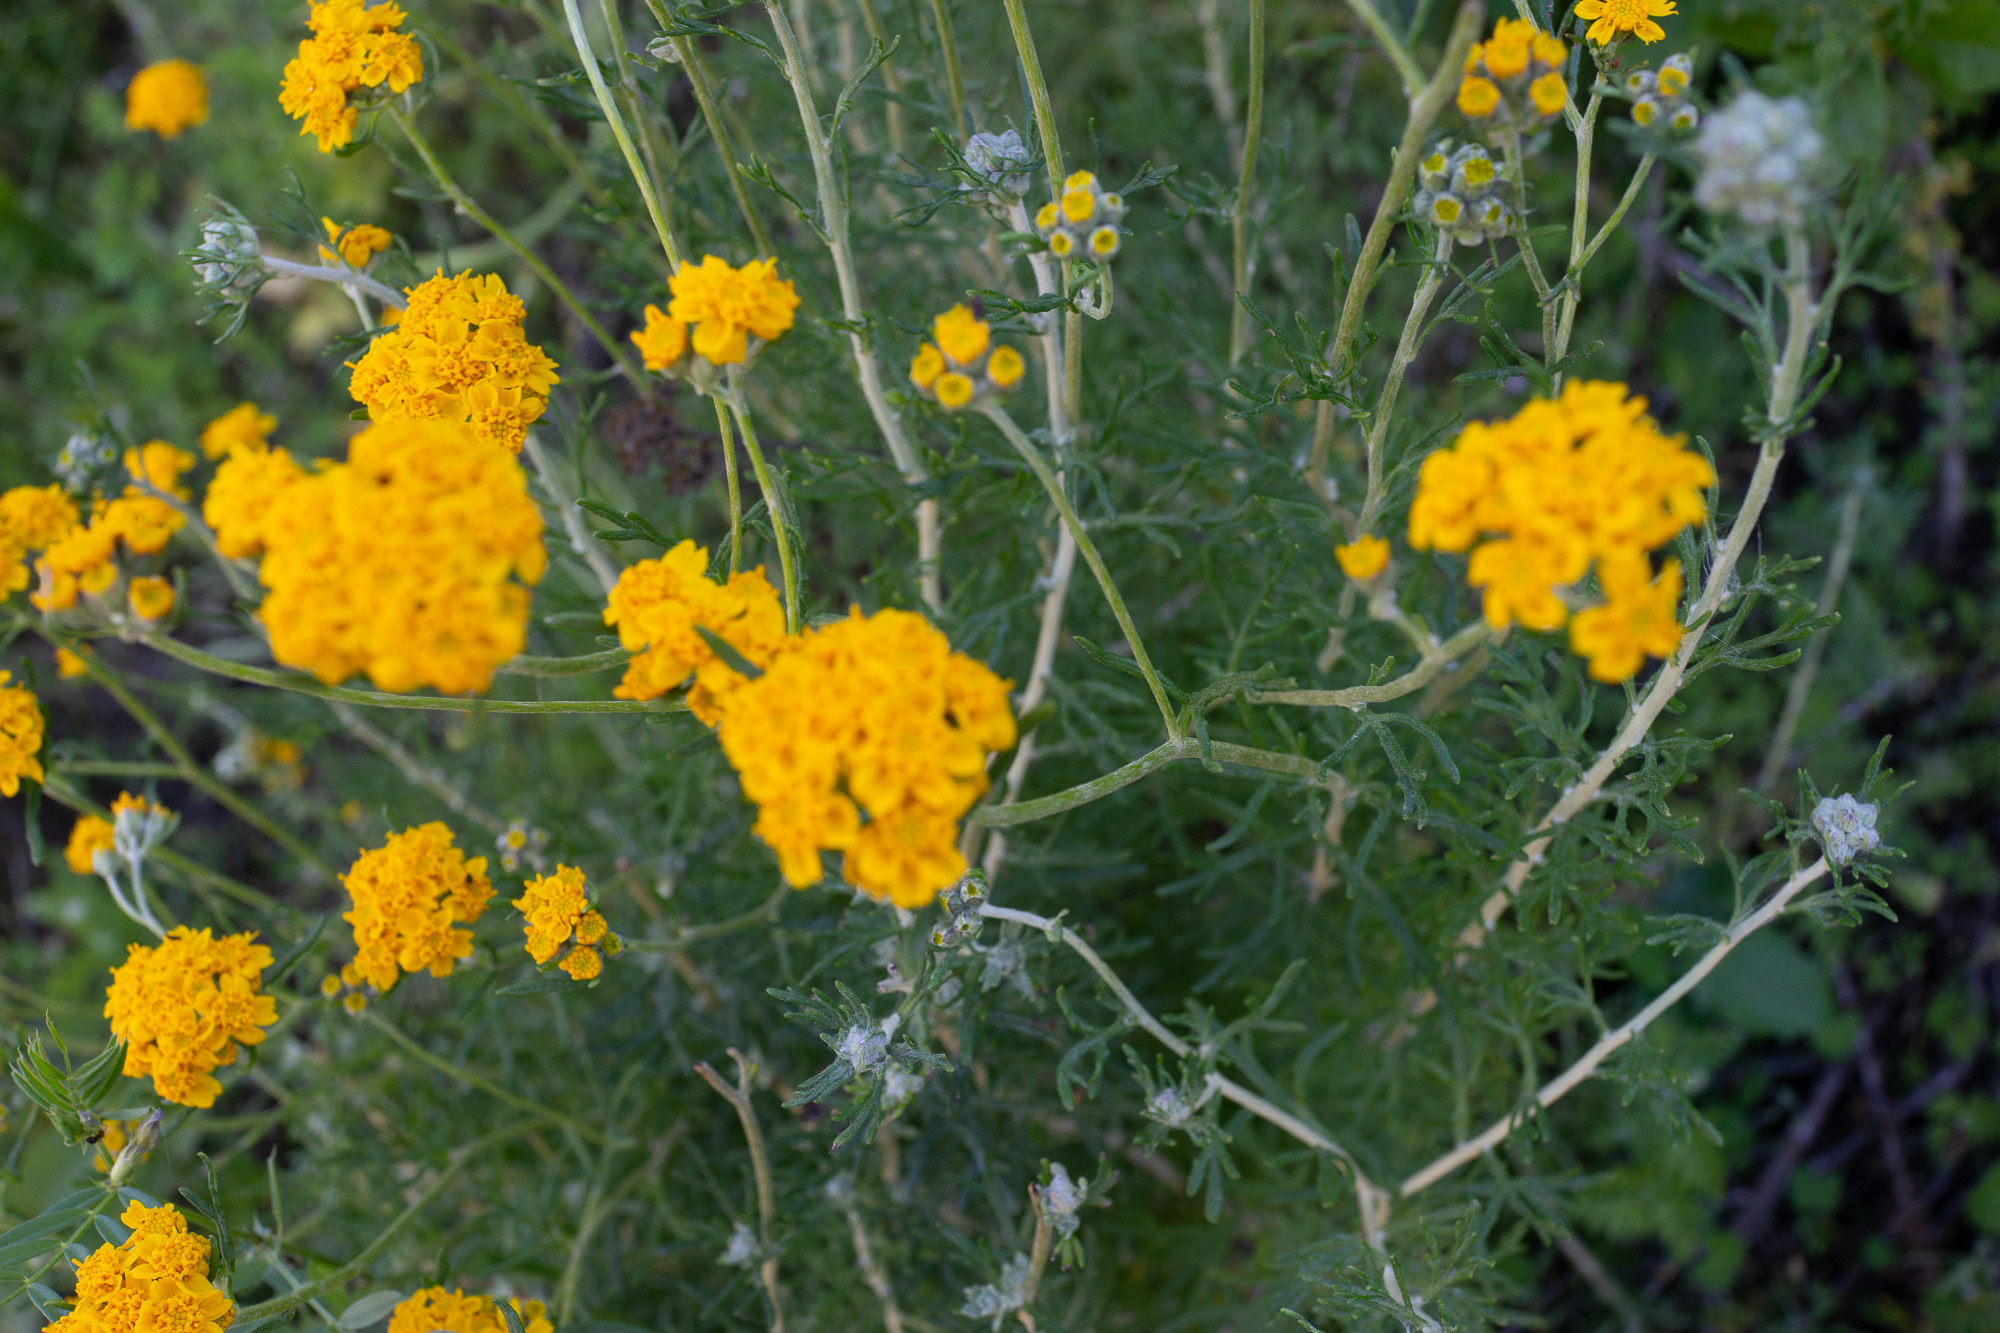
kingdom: Plantae
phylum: Tracheophyta
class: Magnoliopsida
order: Asterales
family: Asteraceae
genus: Eriophyllum
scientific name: Eriophyllum confertiflorum
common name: Golden-yarrow
